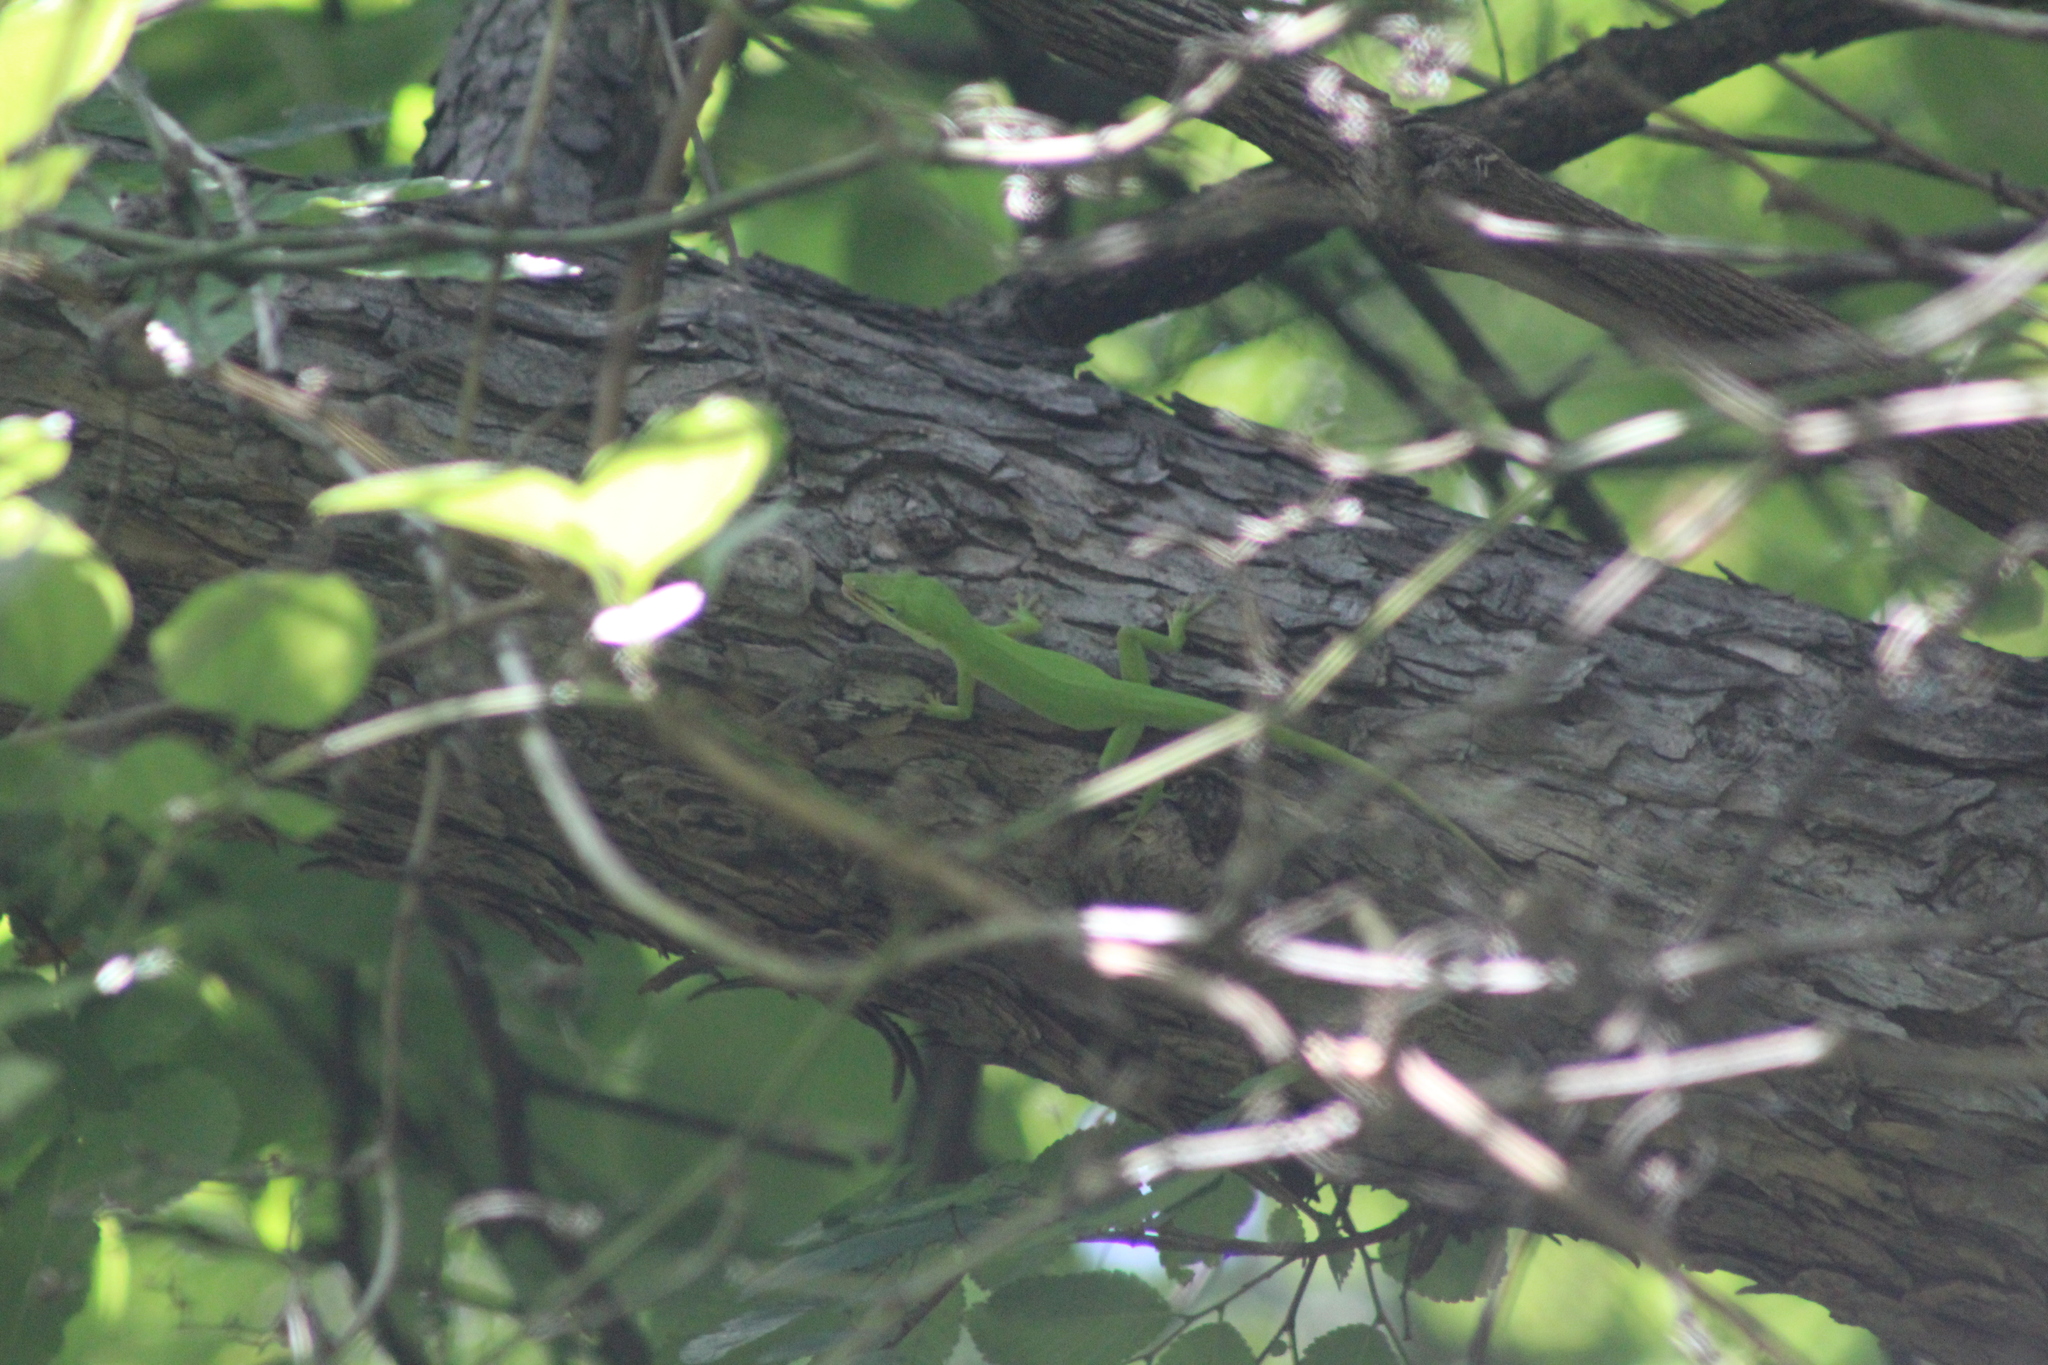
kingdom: Animalia
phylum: Chordata
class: Squamata
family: Dactyloidae
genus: Anolis
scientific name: Anolis carolinensis
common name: Green anole
